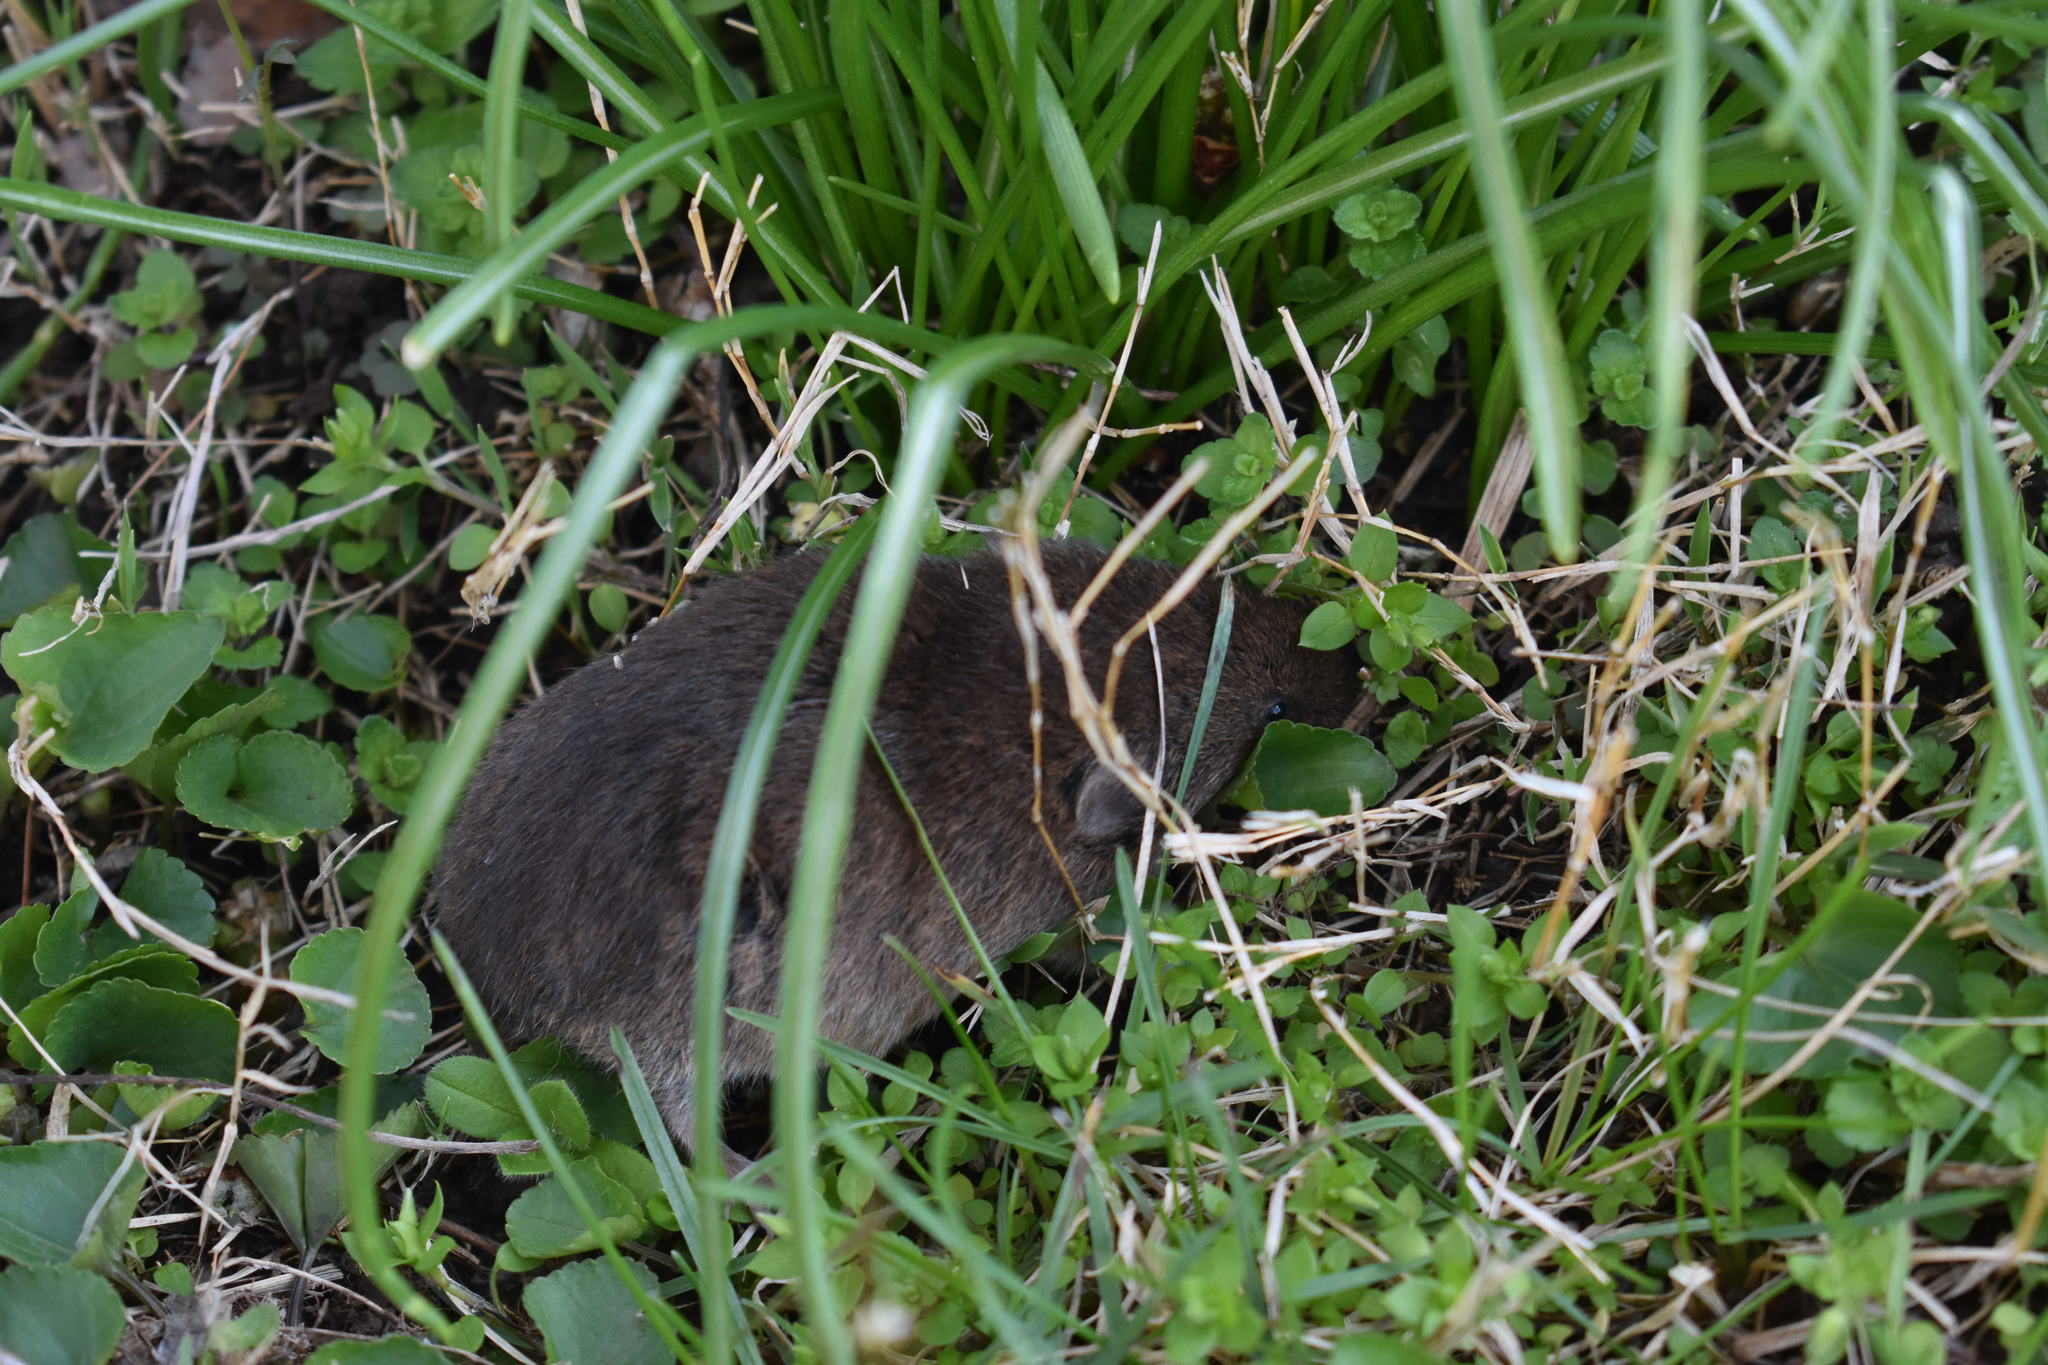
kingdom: Animalia
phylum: Chordata
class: Mammalia
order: Rodentia
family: Cricetidae
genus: Microtus
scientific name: Microtus pinetorum
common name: Woodland vole
